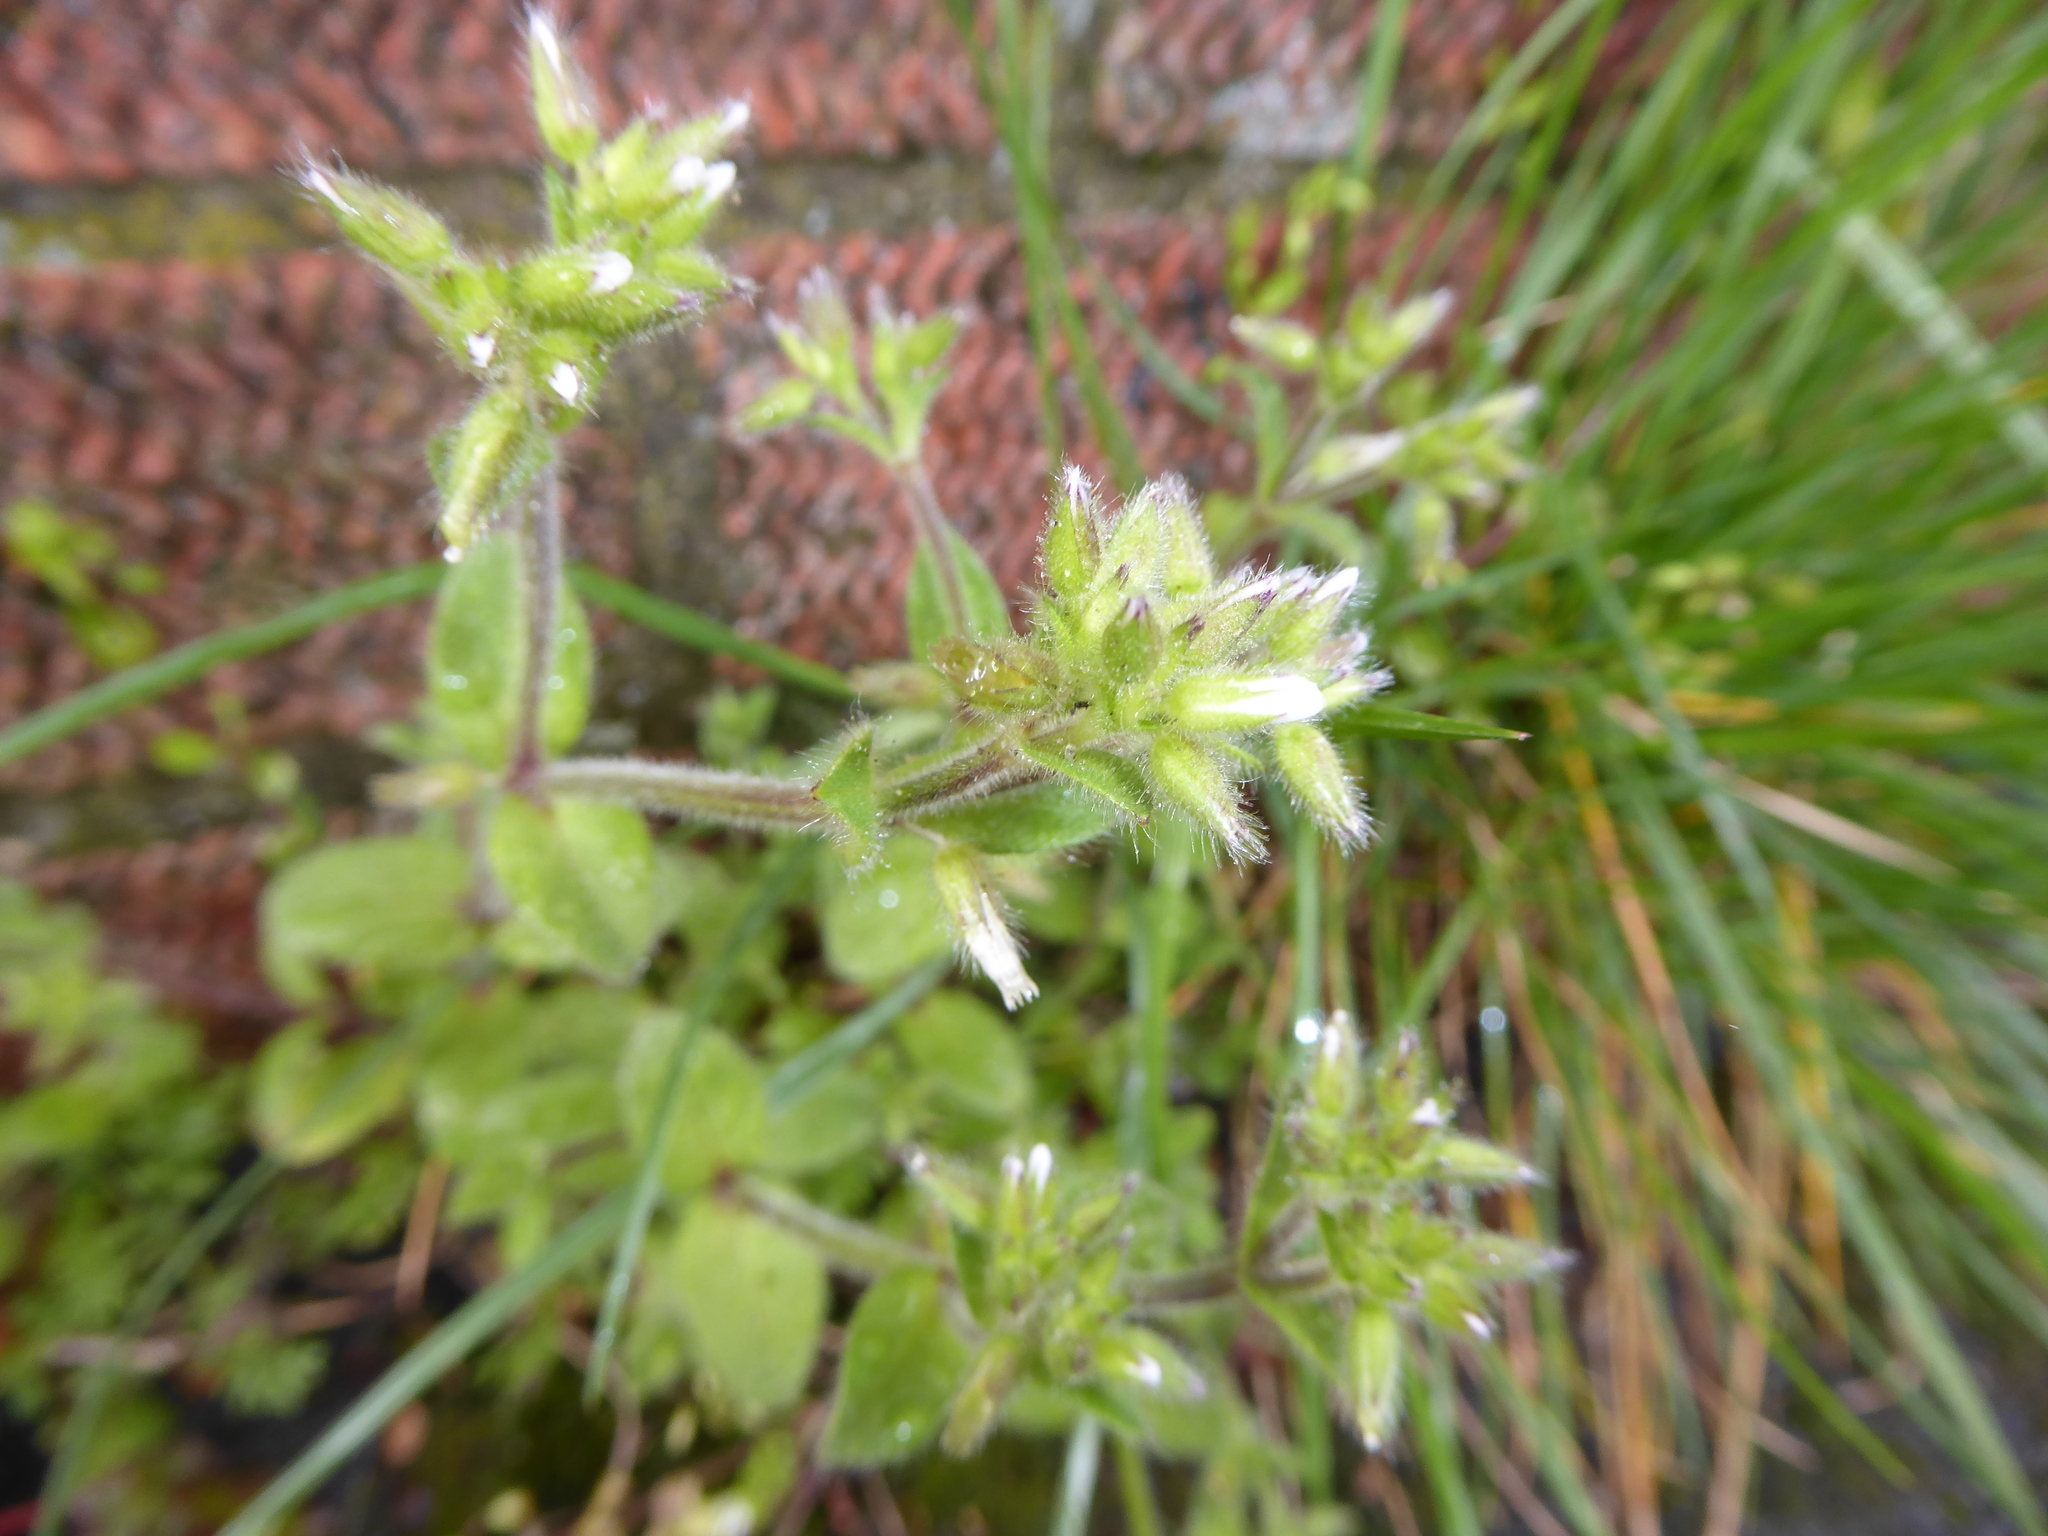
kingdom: Plantae
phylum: Tracheophyta
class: Magnoliopsida
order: Caryophyllales
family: Caryophyllaceae
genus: Cerastium
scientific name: Cerastium glomeratum
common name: Sticky chickweed
